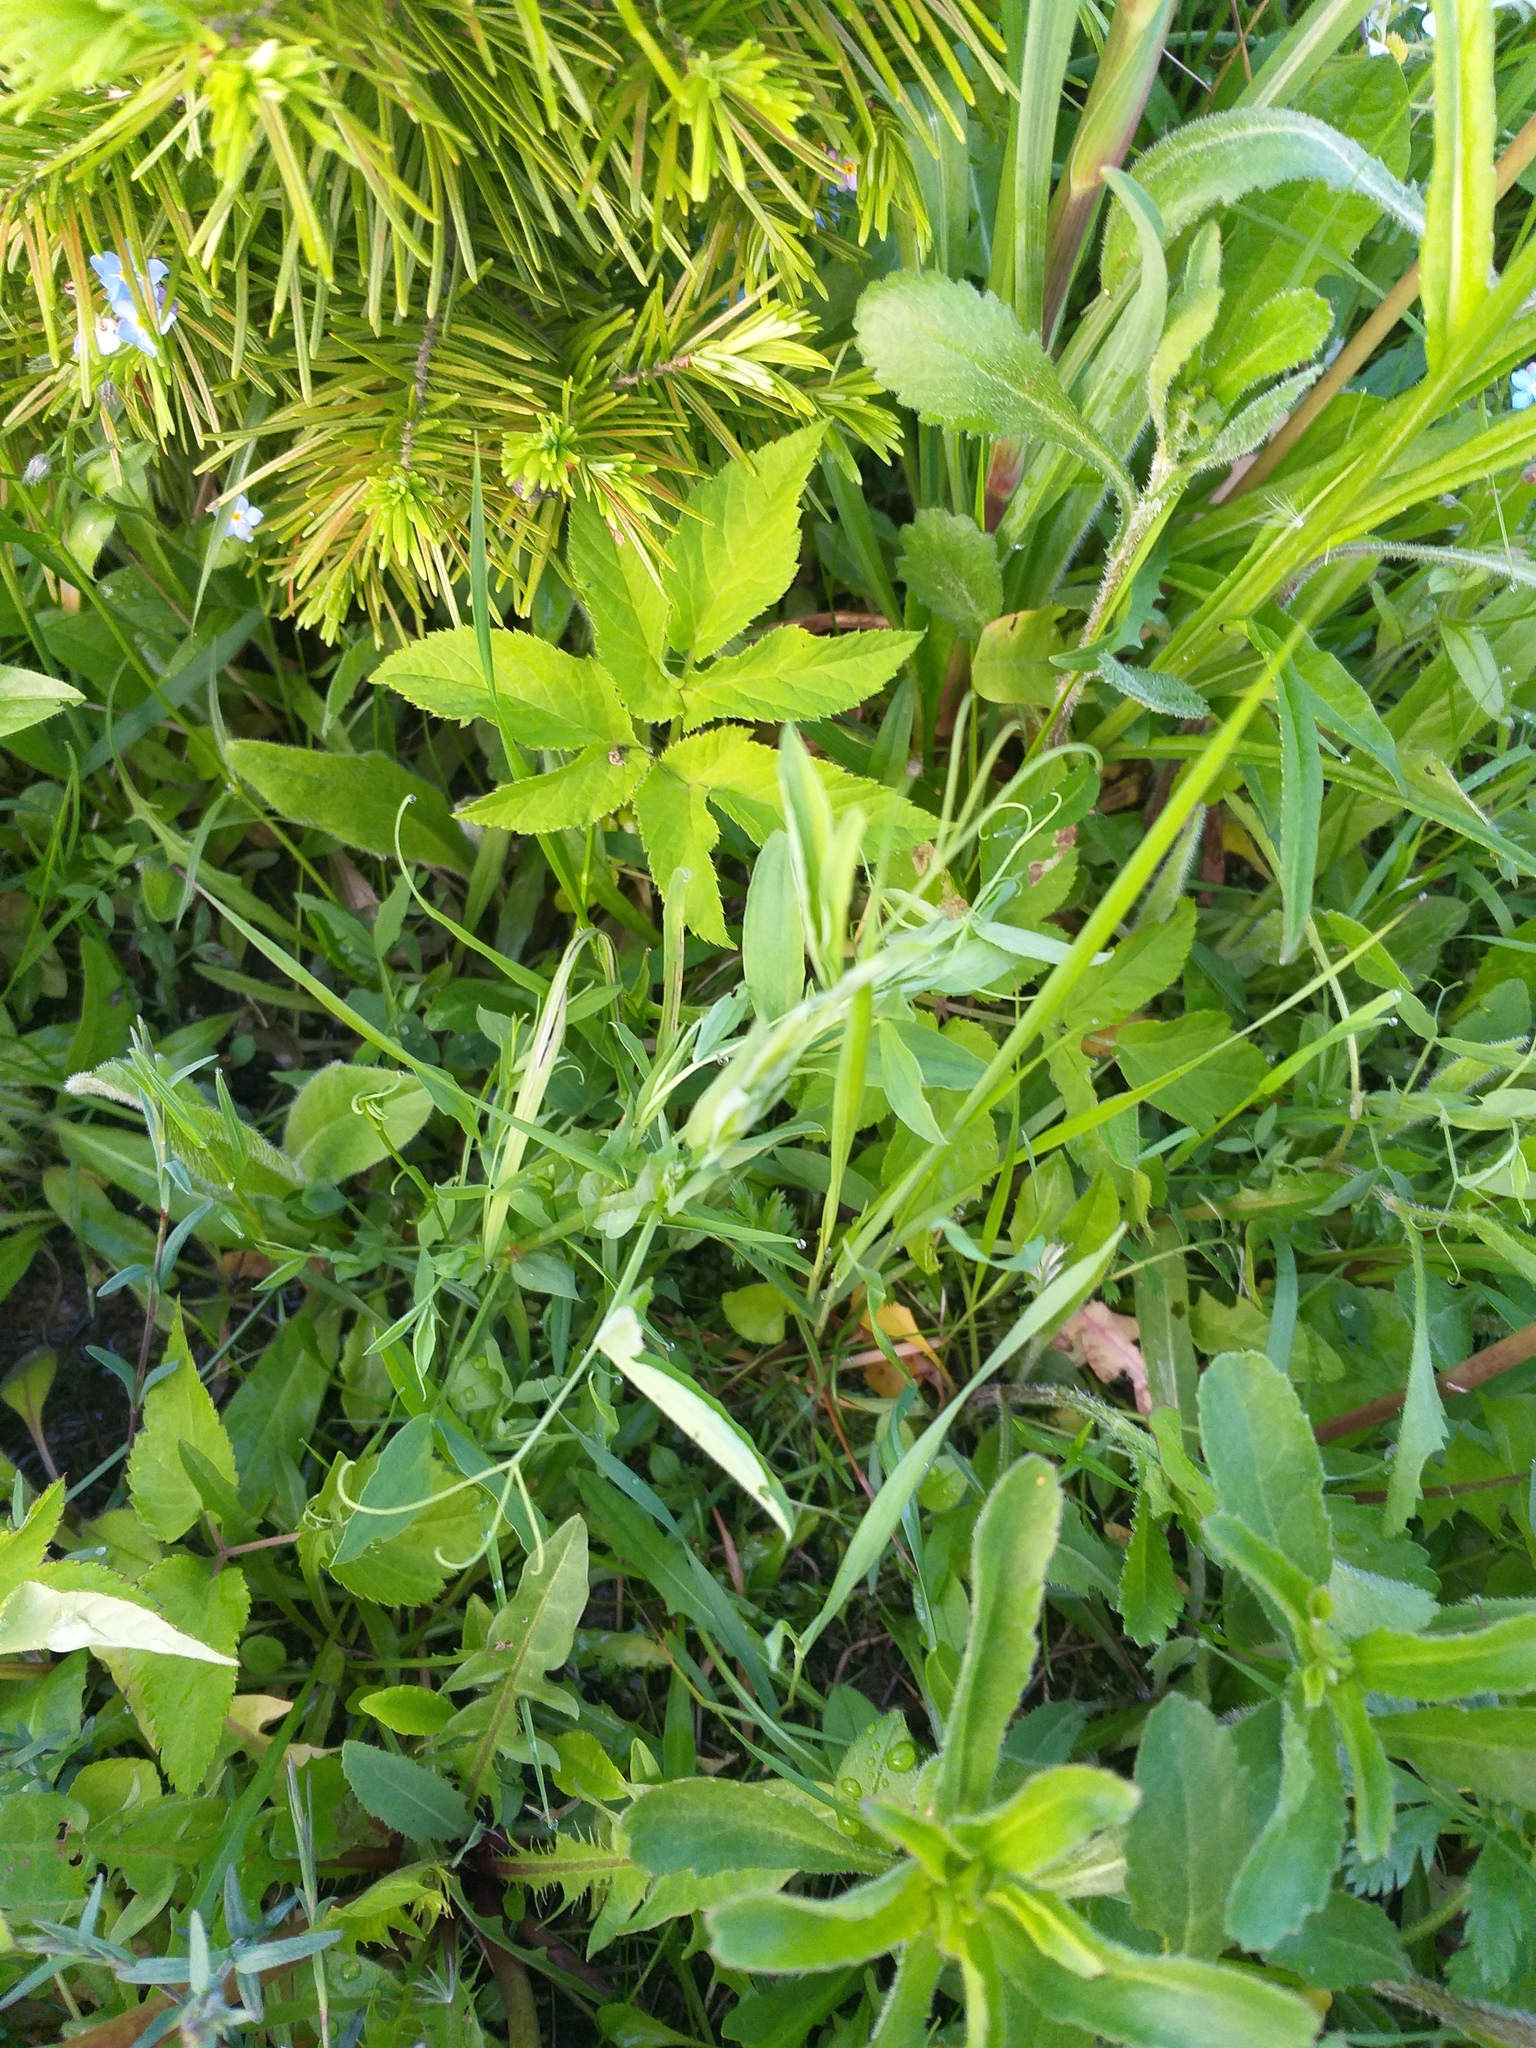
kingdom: Plantae
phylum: Tracheophyta
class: Magnoliopsida
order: Fabales
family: Fabaceae
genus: Lathyrus
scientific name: Lathyrus pratensis
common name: Meadow vetchling
